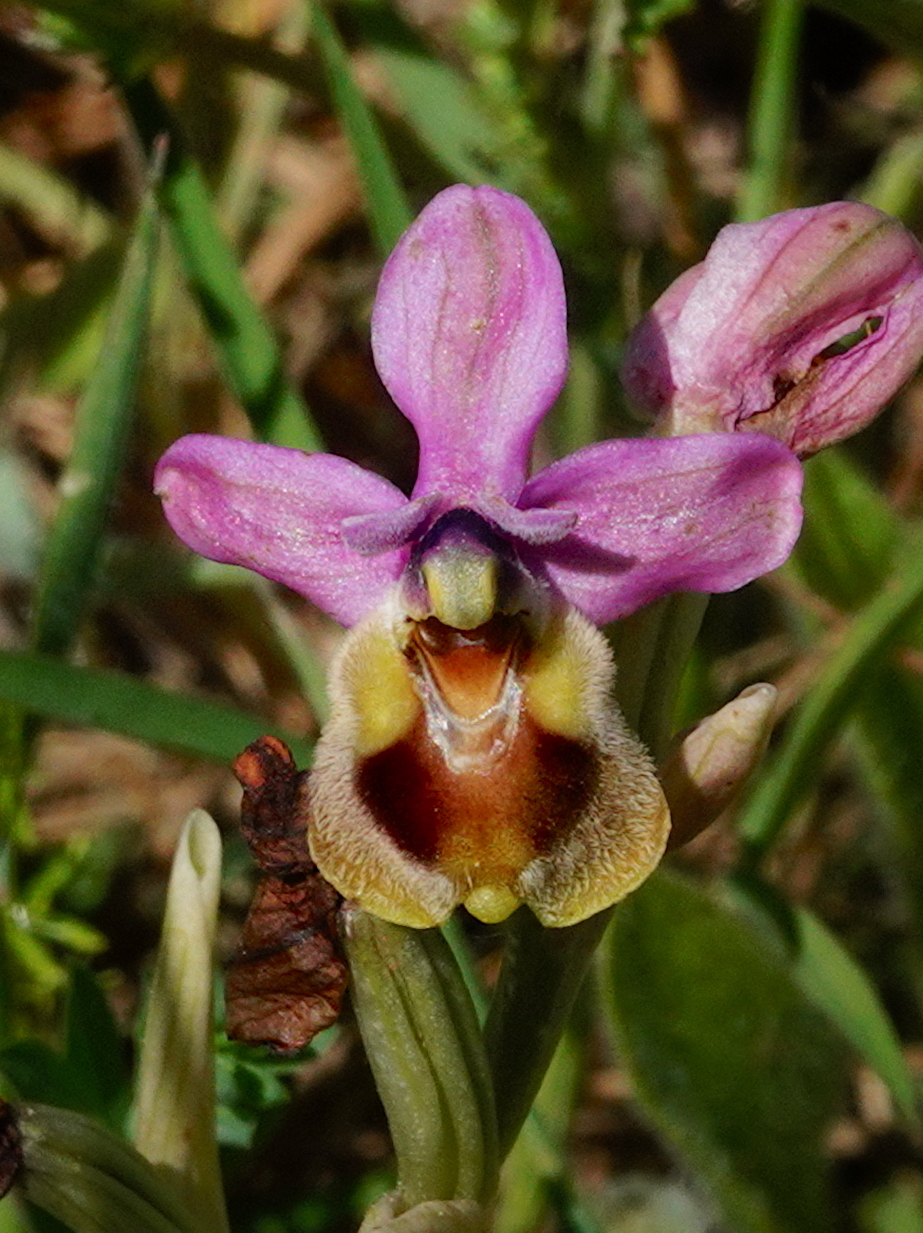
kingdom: Plantae
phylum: Tracheophyta
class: Liliopsida
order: Asparagales
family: Orchidaceae
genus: Ophrys
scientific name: Ophrys tenthredinifera
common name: Sawfly orchid
